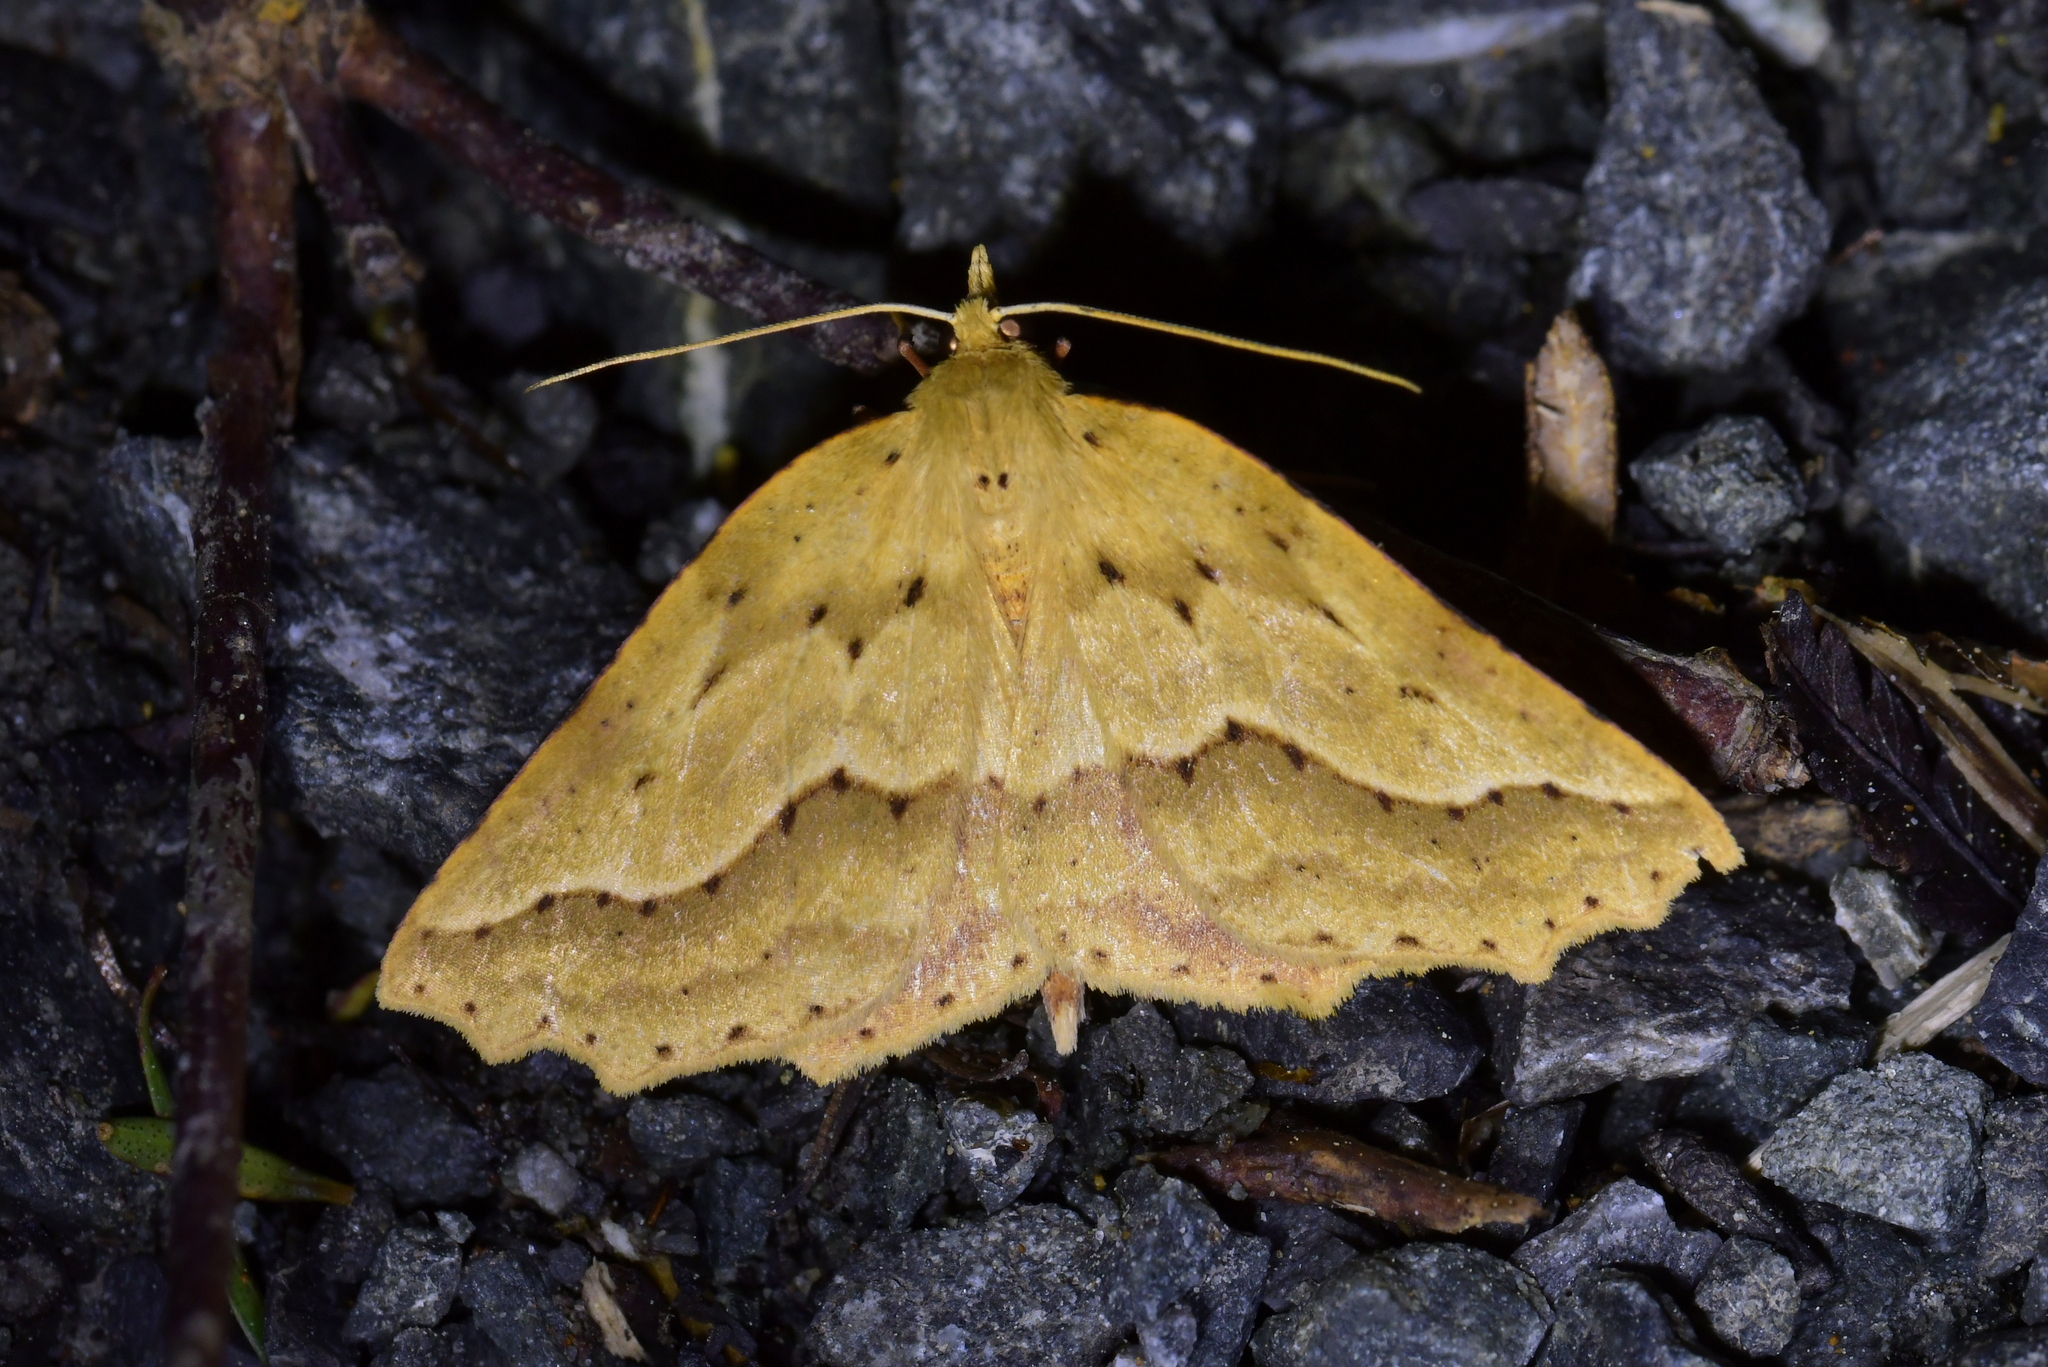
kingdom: Animalia
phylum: Arthropoda
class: Insecta
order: Lepidoptera
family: Geometridae
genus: Ischalis
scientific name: Ischalis variabilis
